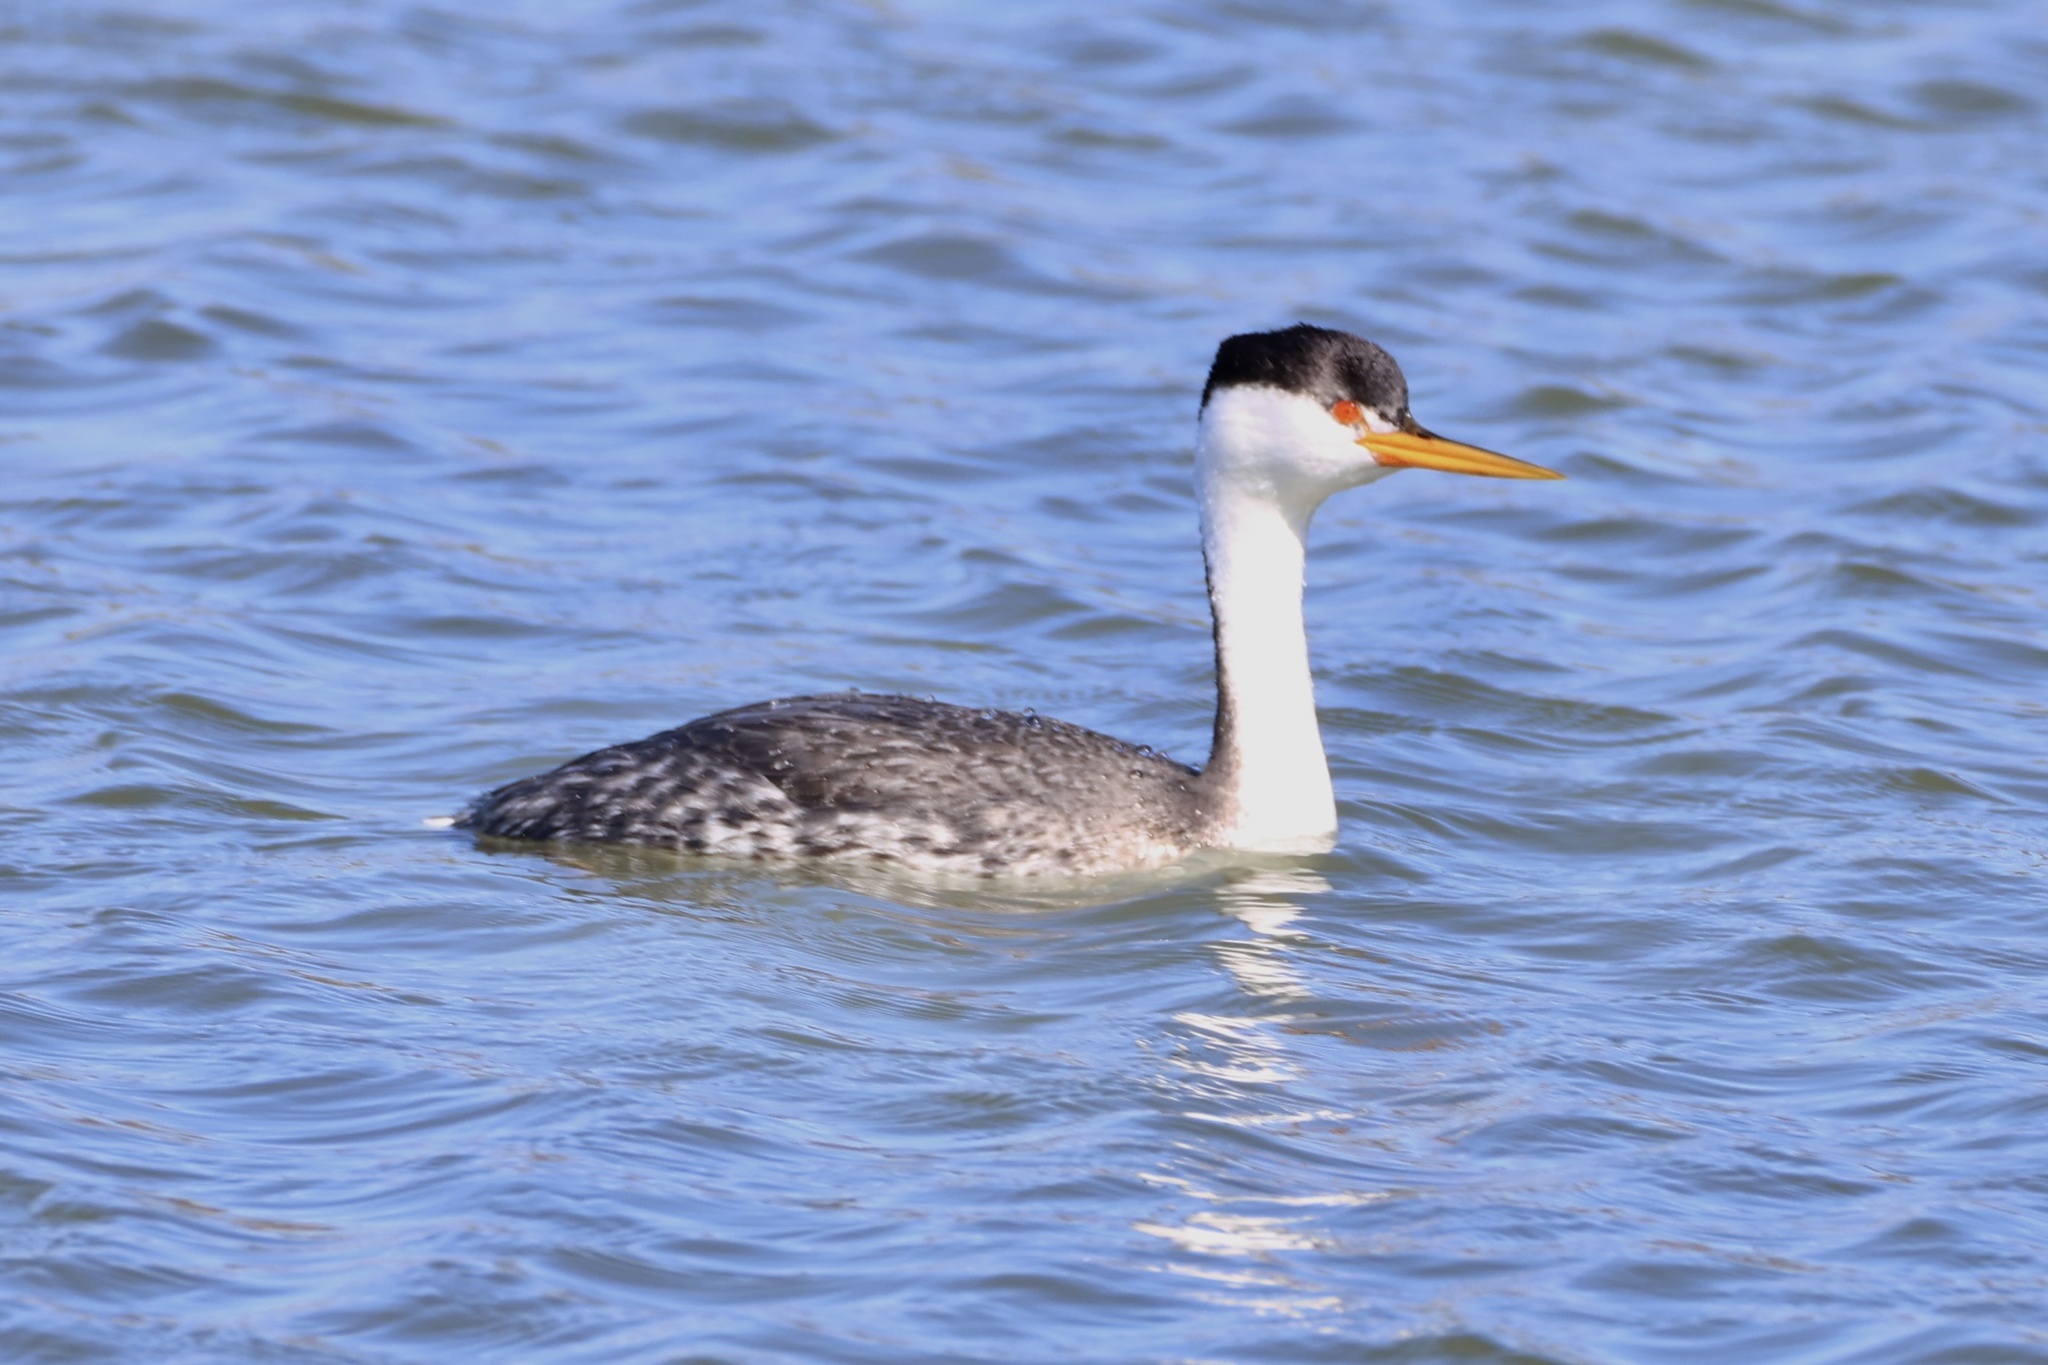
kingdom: Animalia
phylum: Chordata
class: Aves
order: Podicipediformes
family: Podicipedidae
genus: Aechmophorus
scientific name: Aechmophorus clarkii
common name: Clark's grebe
